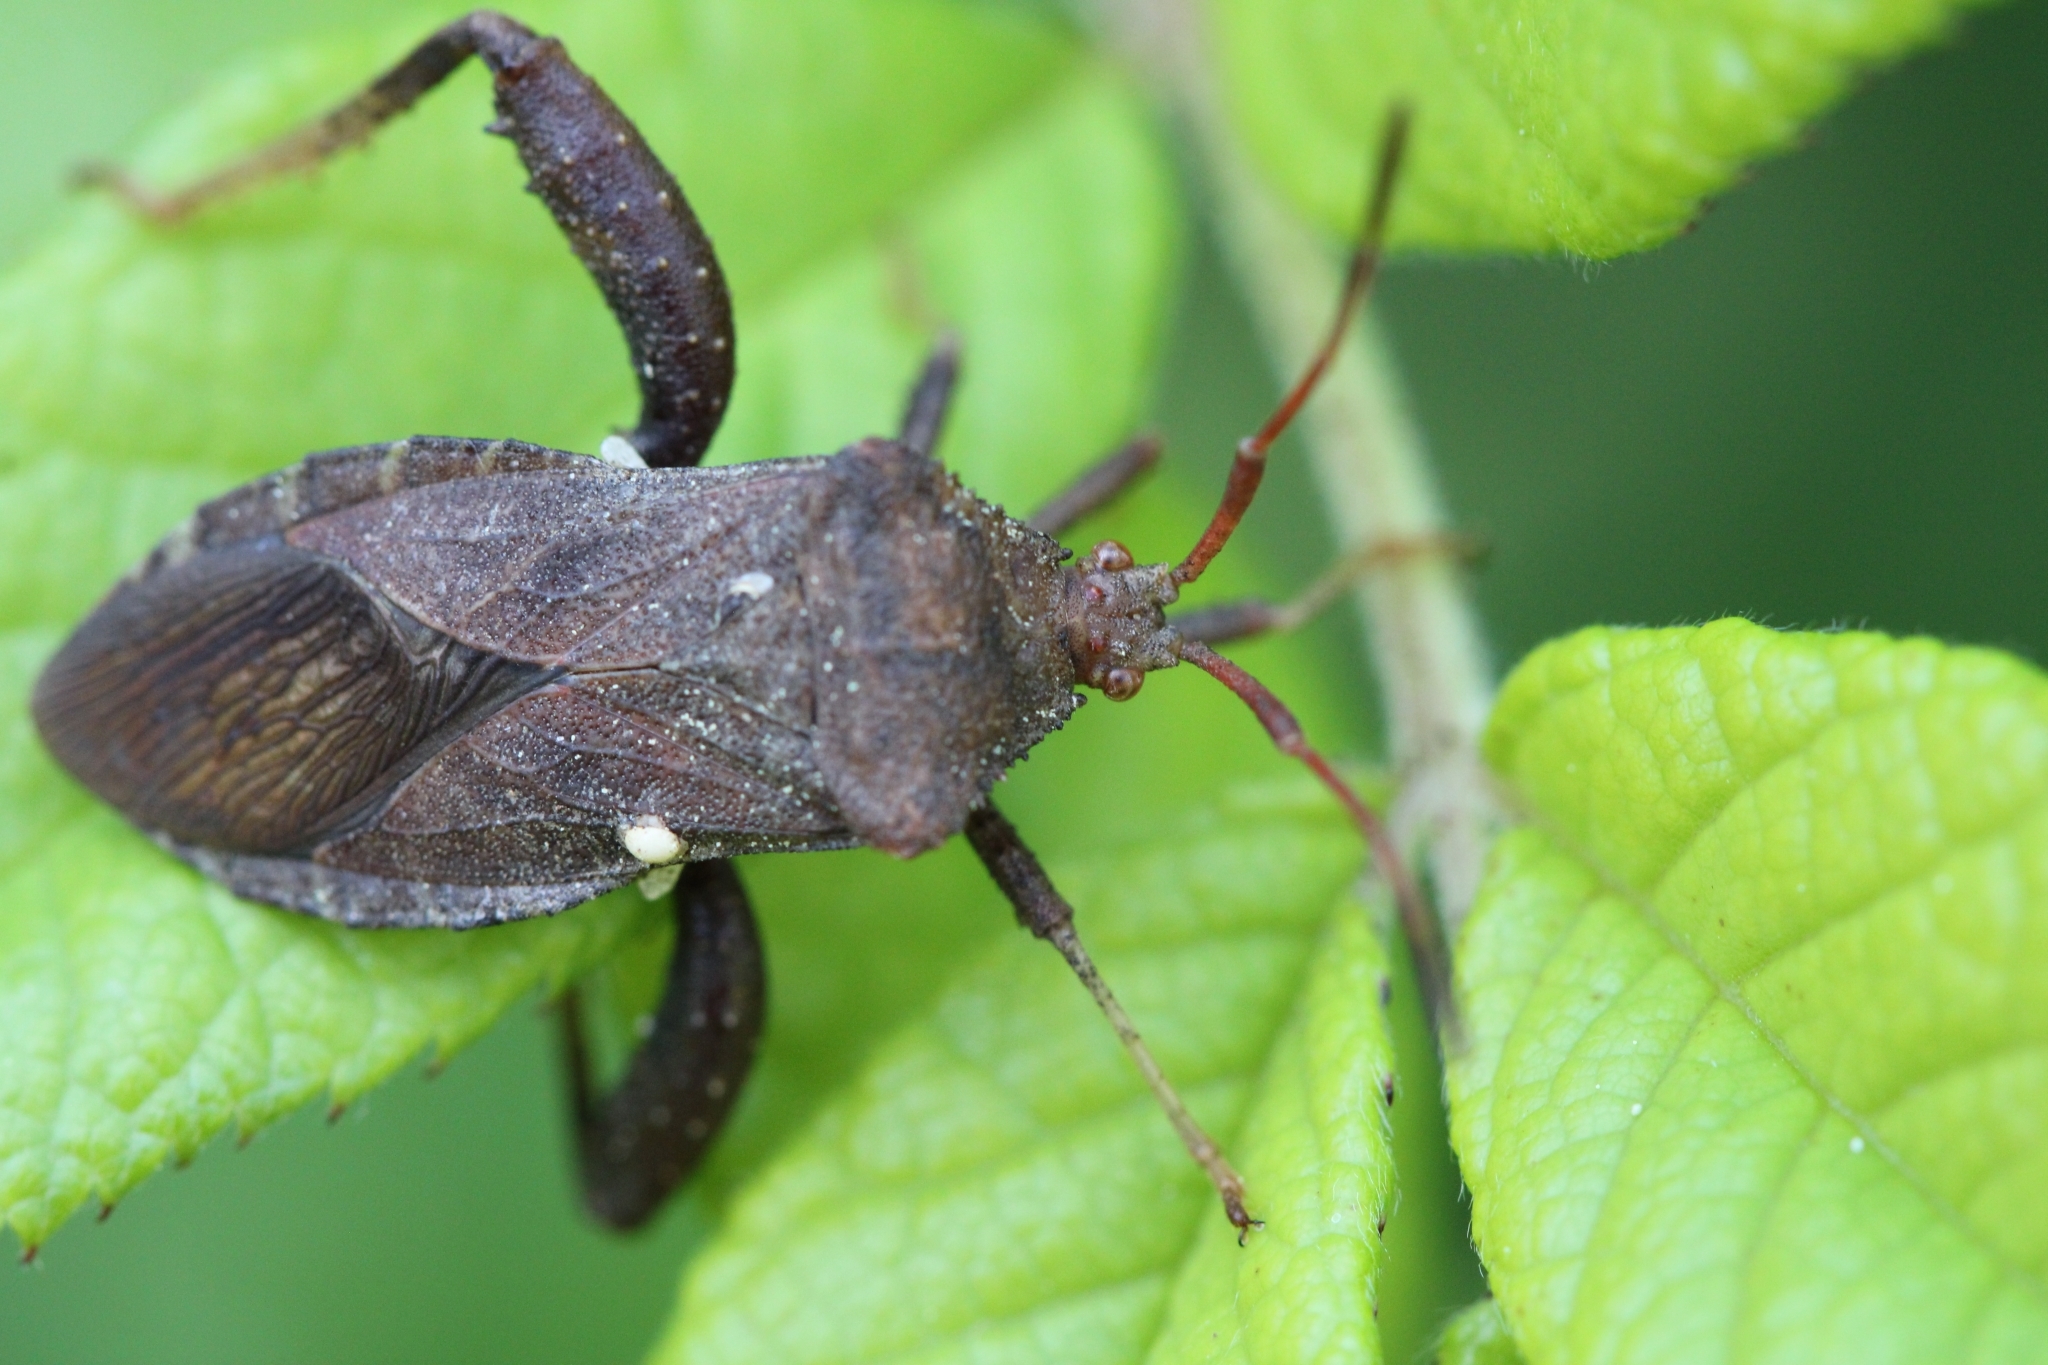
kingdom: Animalia
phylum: Arthropoda
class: Insecta
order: Hemiptera
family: Coreidae
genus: Euthochtha
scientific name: Euthochtha galeator
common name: Helmeted squash bug
